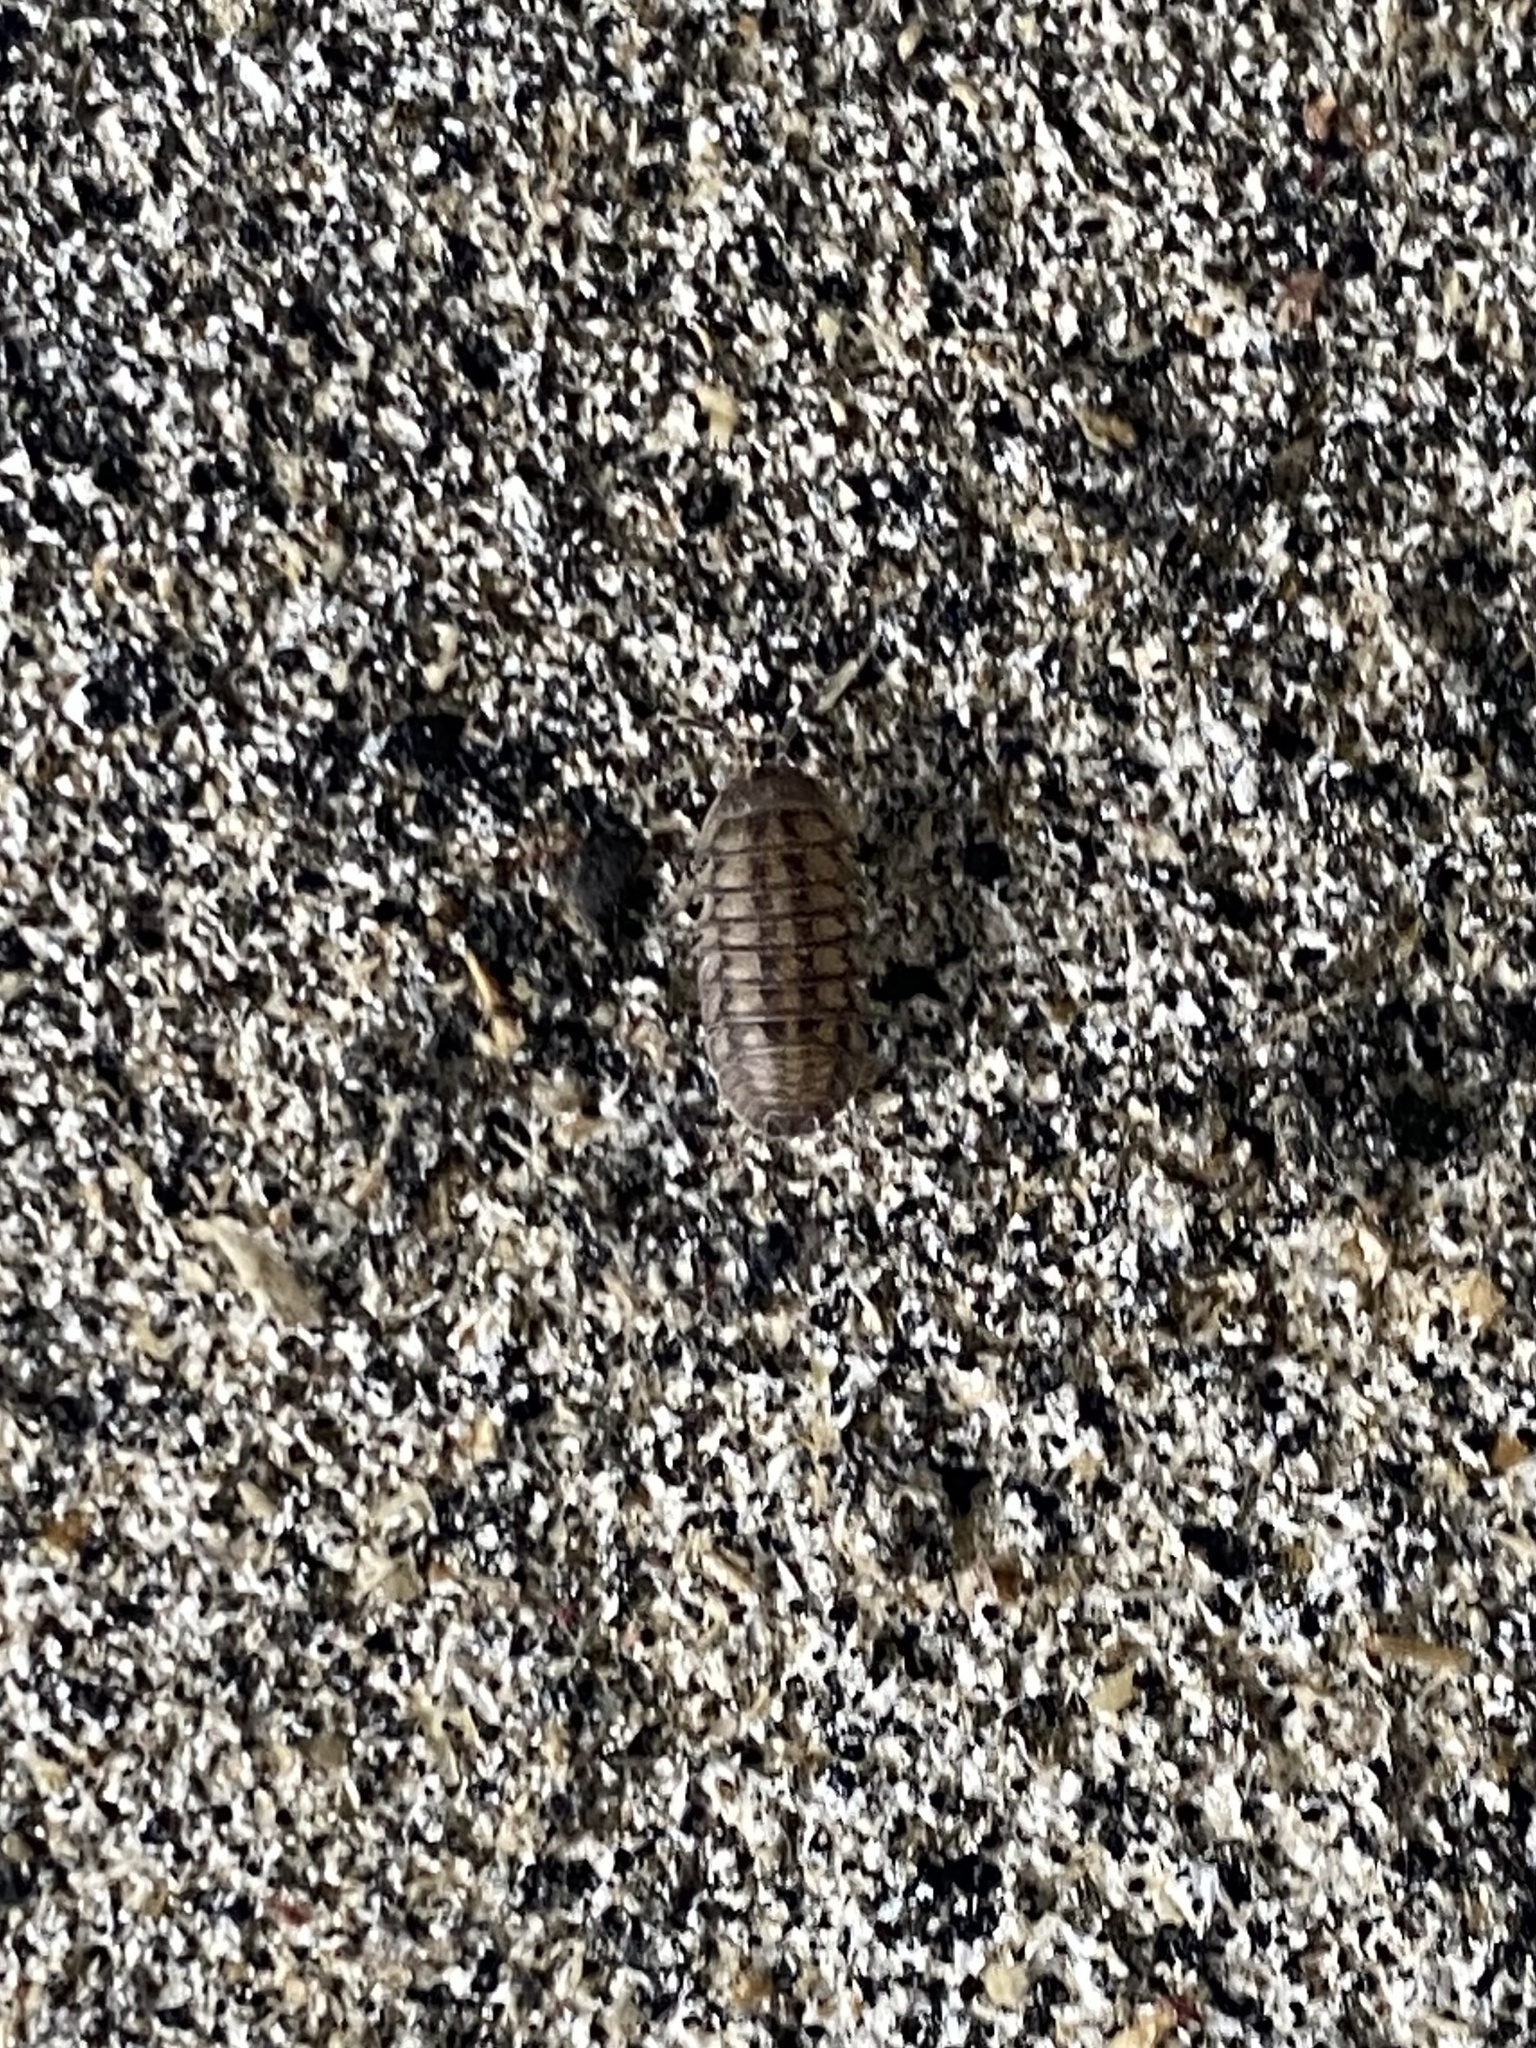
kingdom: Animalia
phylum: Arthropoda
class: Malacostraca
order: Isopoda
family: Armadillidiidae
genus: Armadillidium
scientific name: Armadillidium nasatum
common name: Isopod
